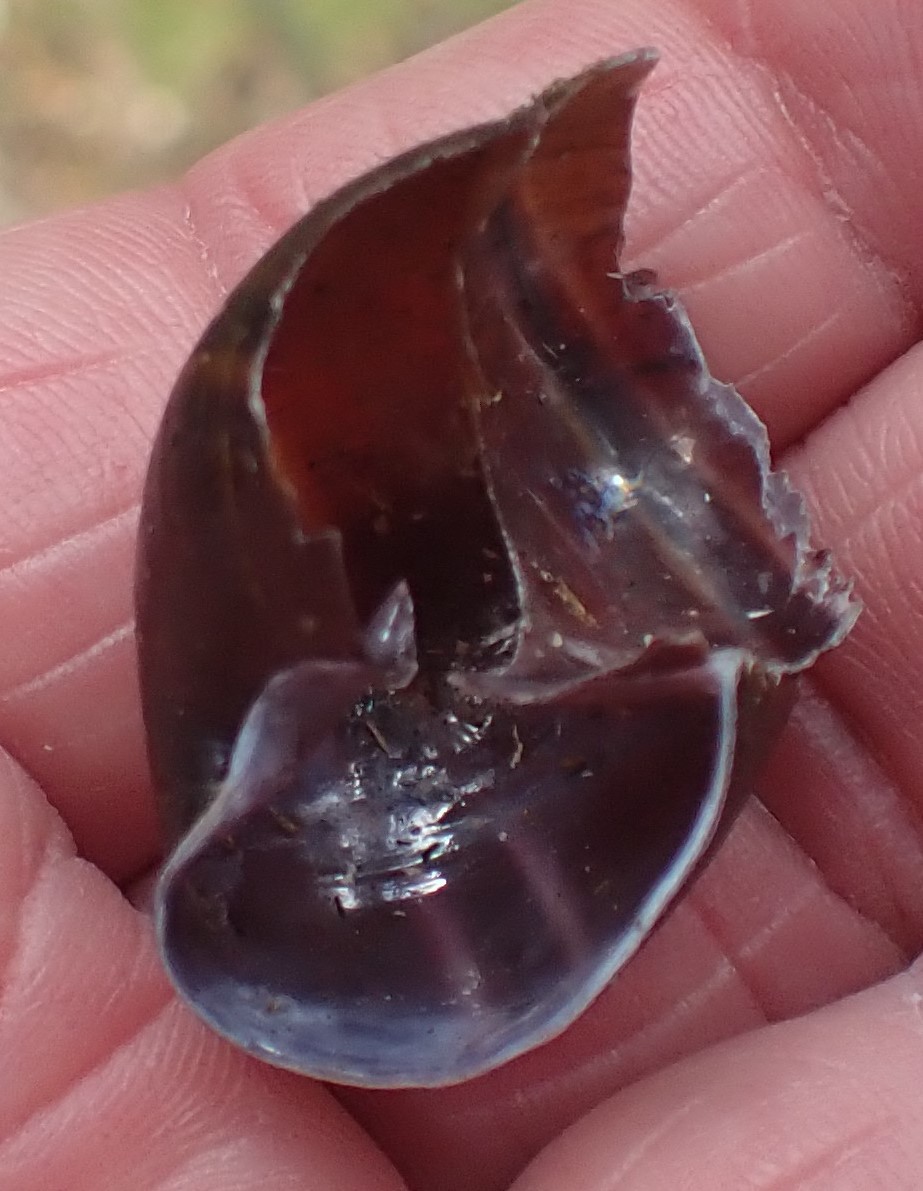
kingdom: Animalia
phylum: Mollusca
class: Gastropoda
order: Stylommatophora
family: Caryodidae
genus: Caryodes
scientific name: Caryodes dufresnii
